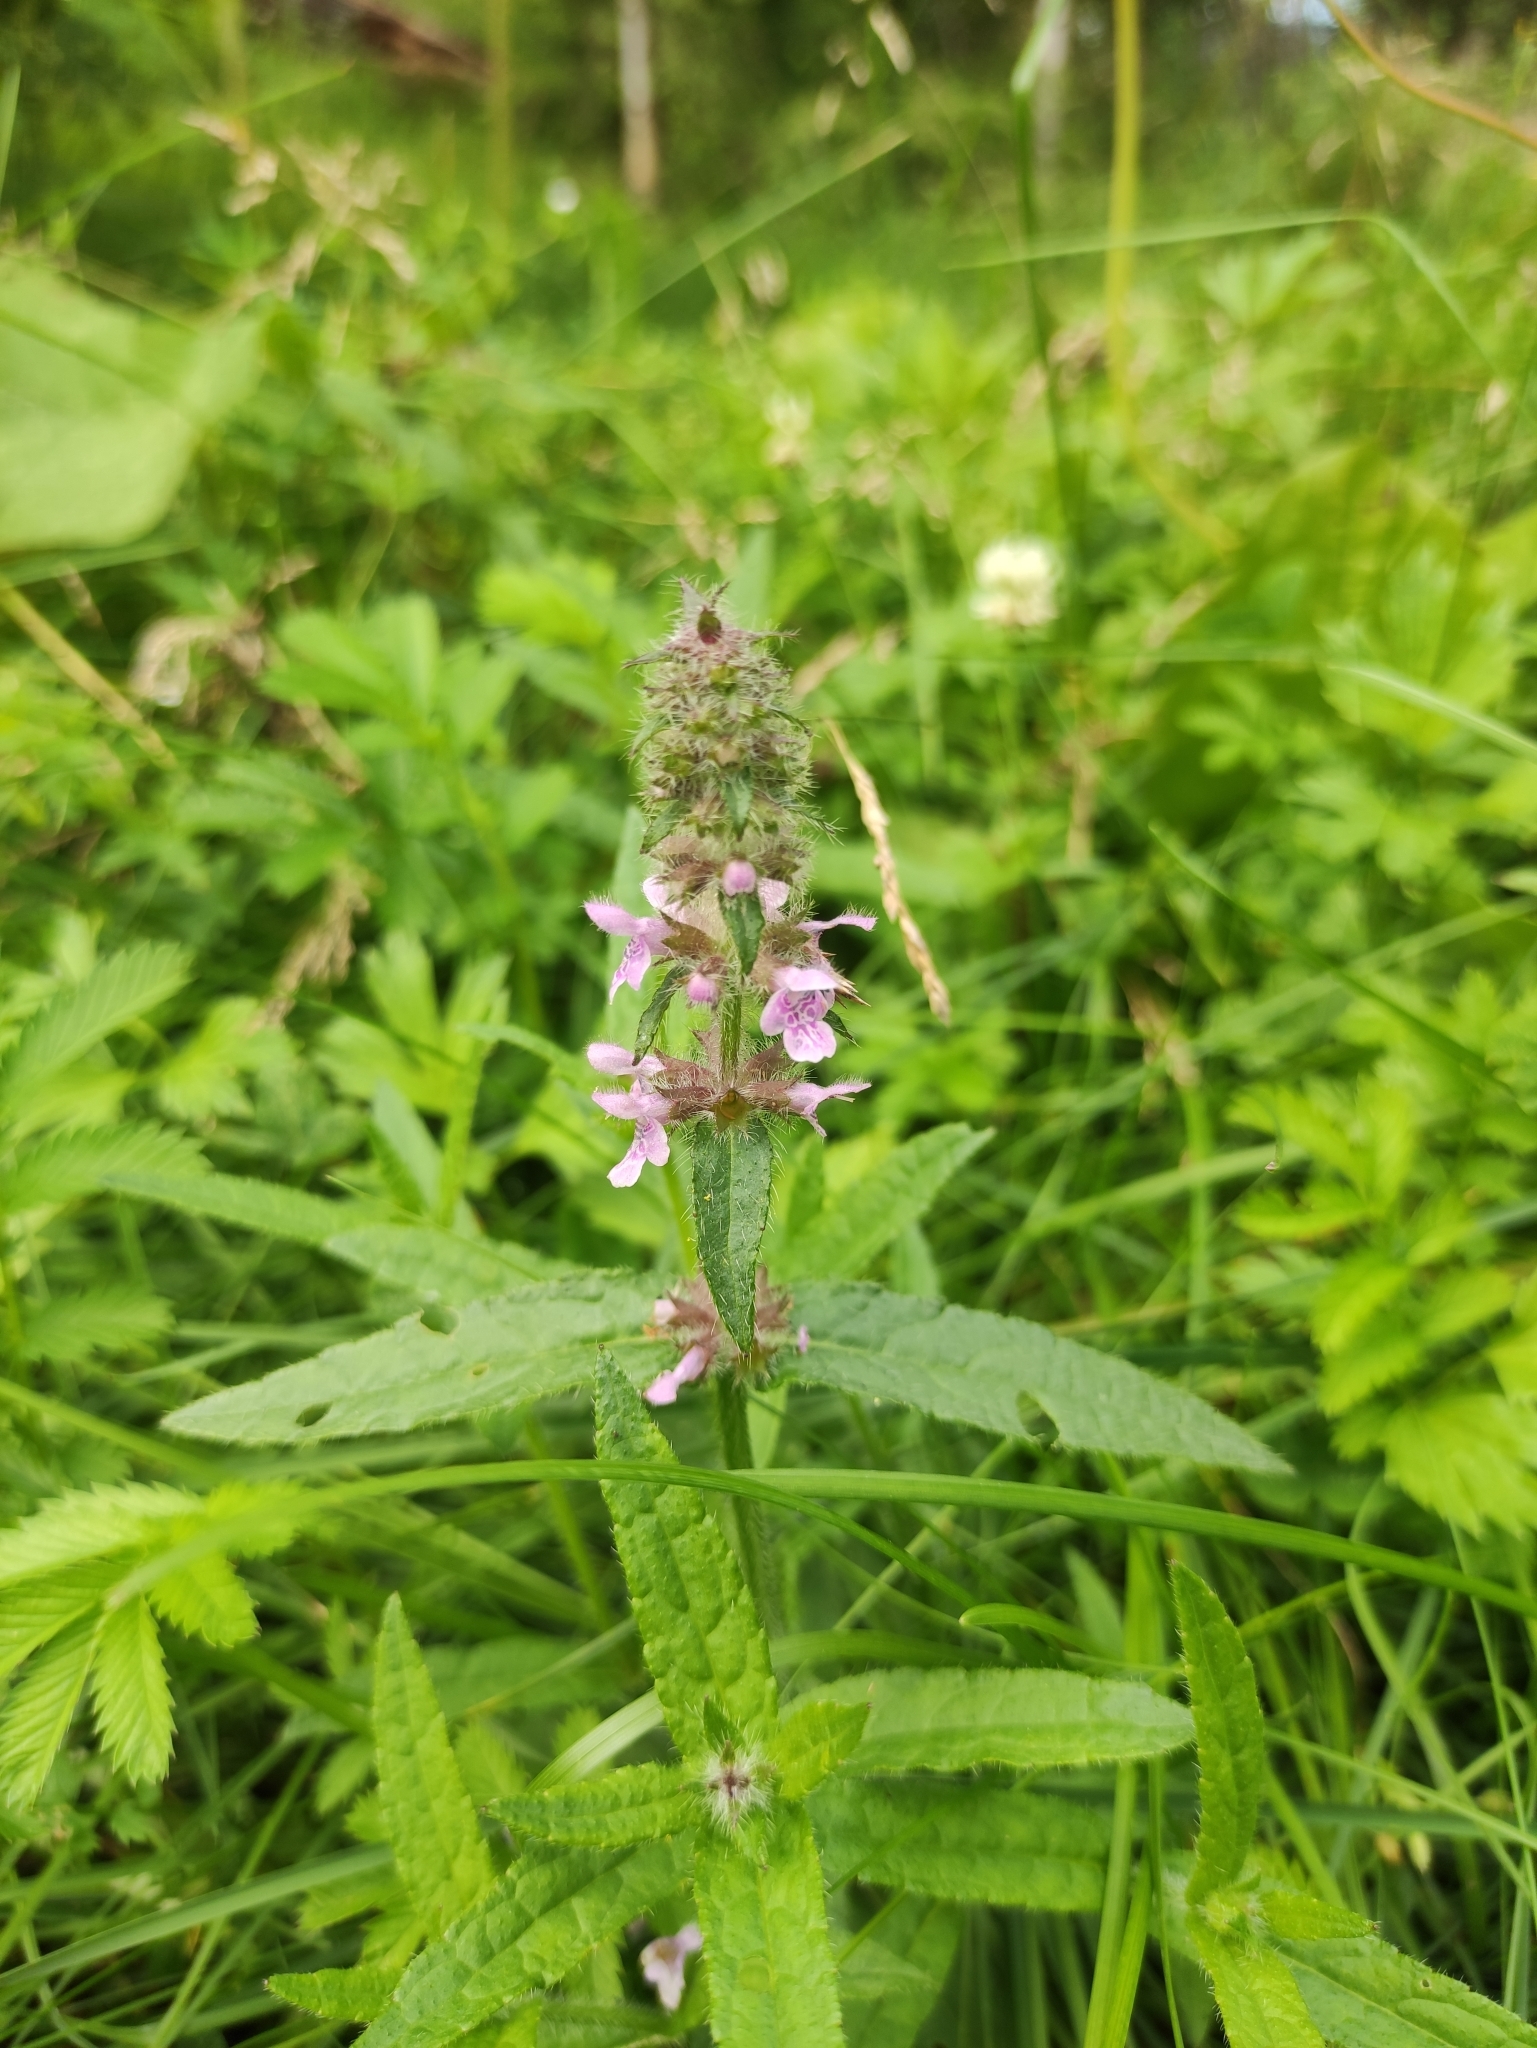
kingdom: Plantae
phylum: Tracheophyta
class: Magnoliopsida
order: Lamiales
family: Lamiaceae
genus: Stachys
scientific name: Stachys aspera
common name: Hyssopleaf hedgenettle
